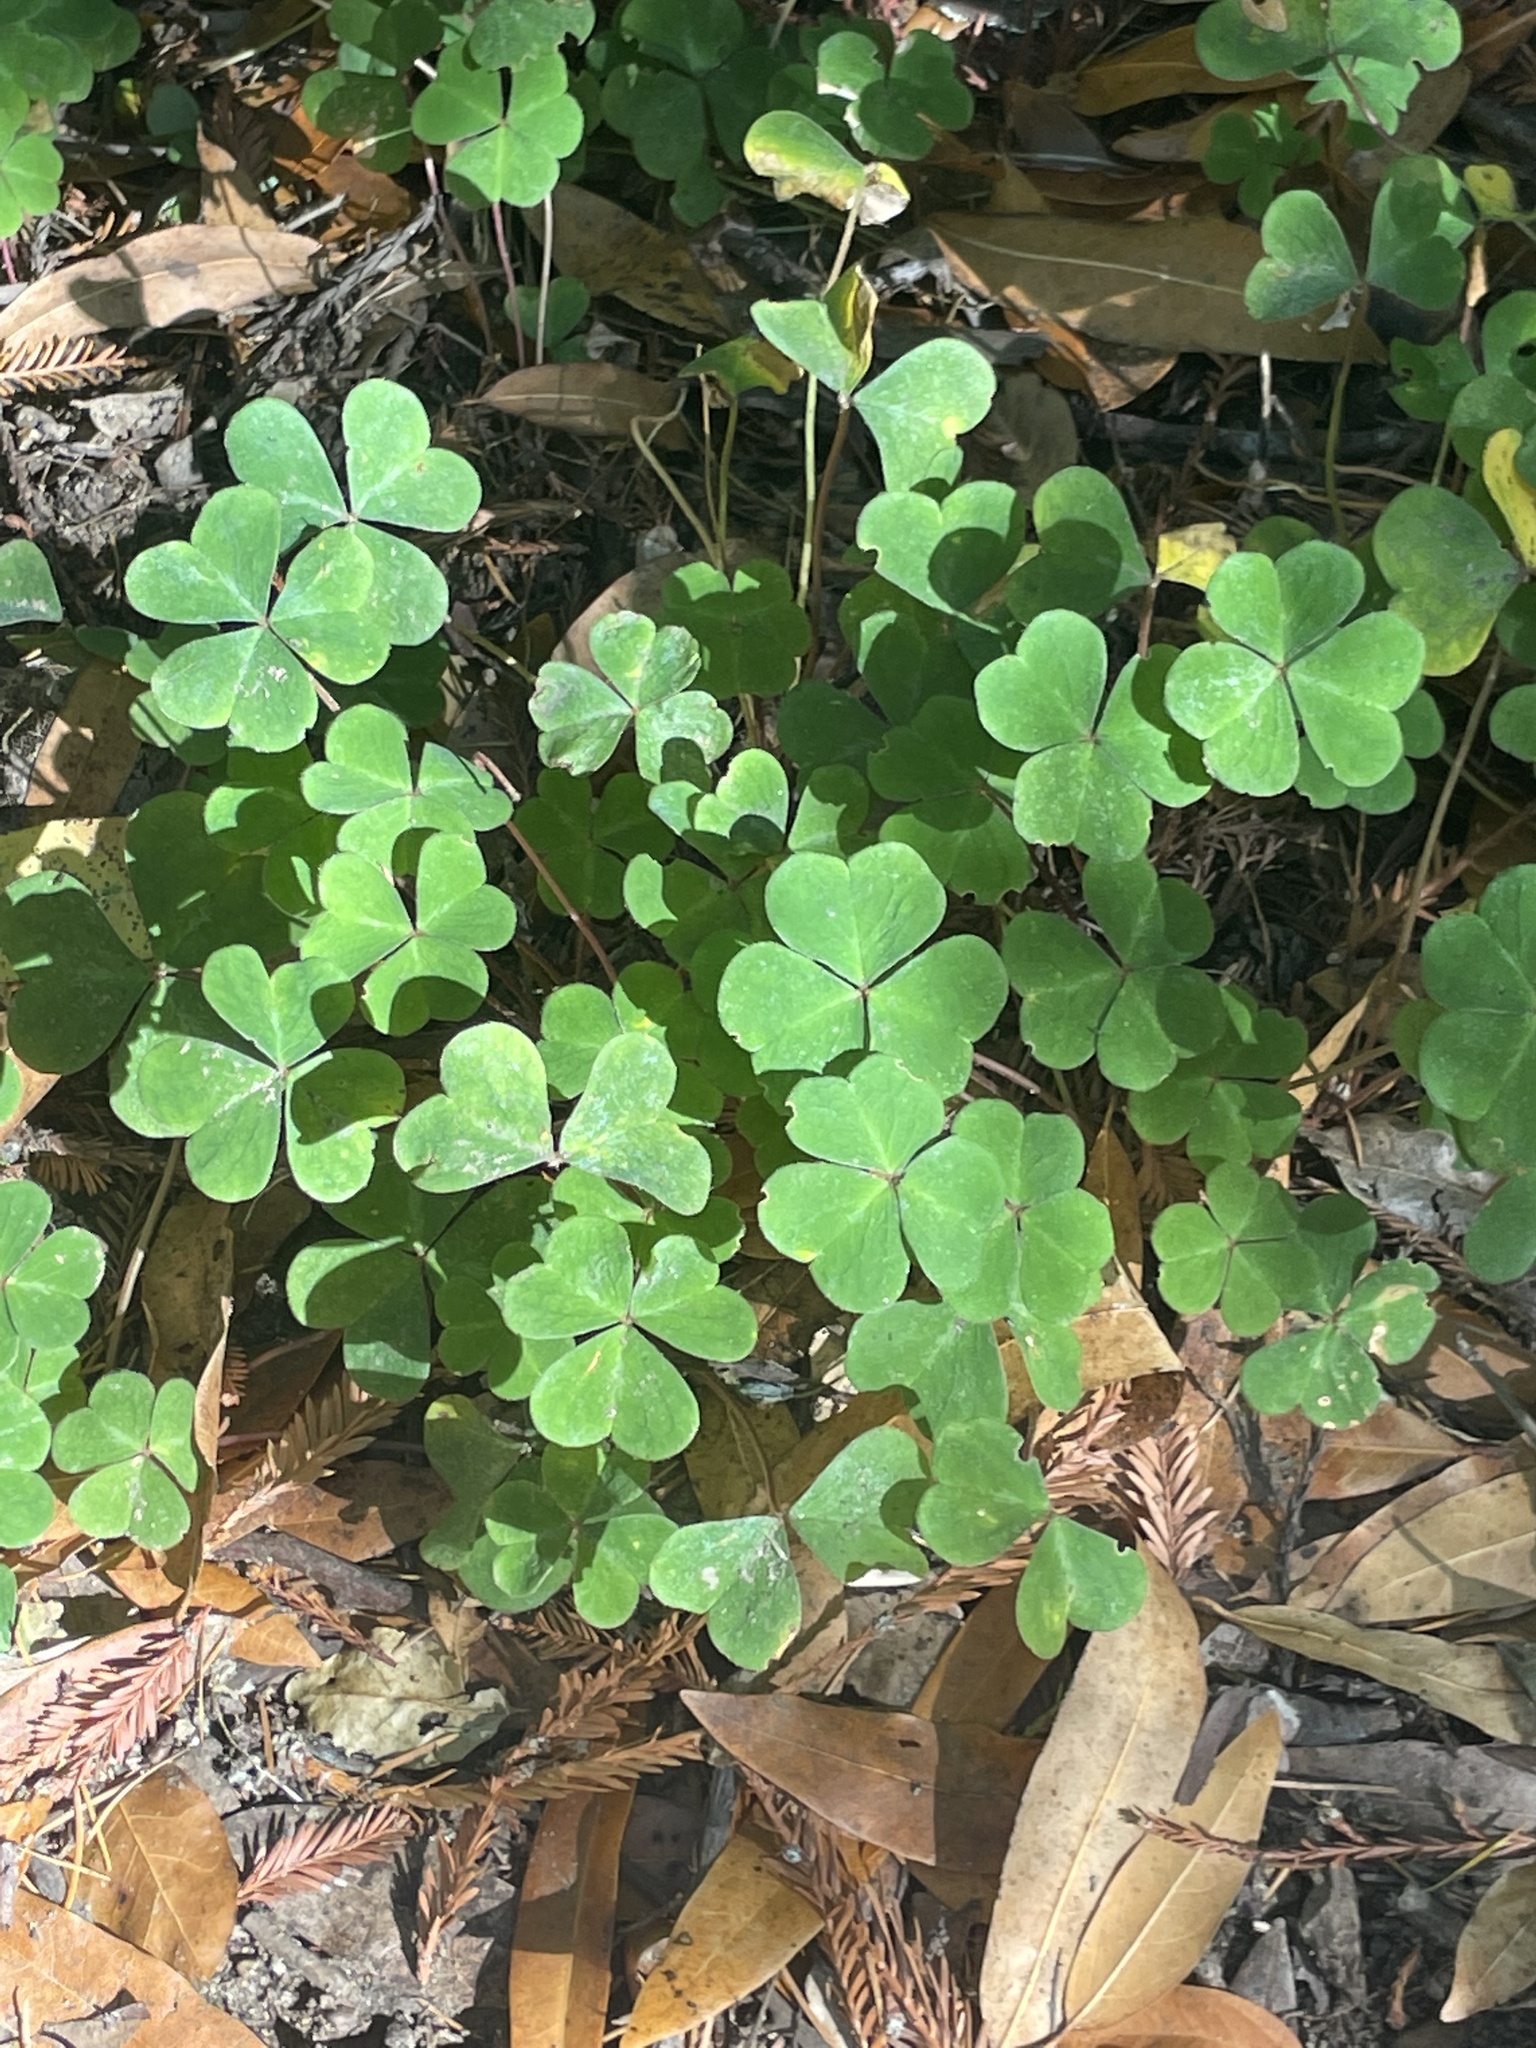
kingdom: Plantae
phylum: Tracheophyta
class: Magnoliopsida
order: Oxalidales
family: Oxalidaceae
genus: Oxalis
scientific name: Oxalis oregana
